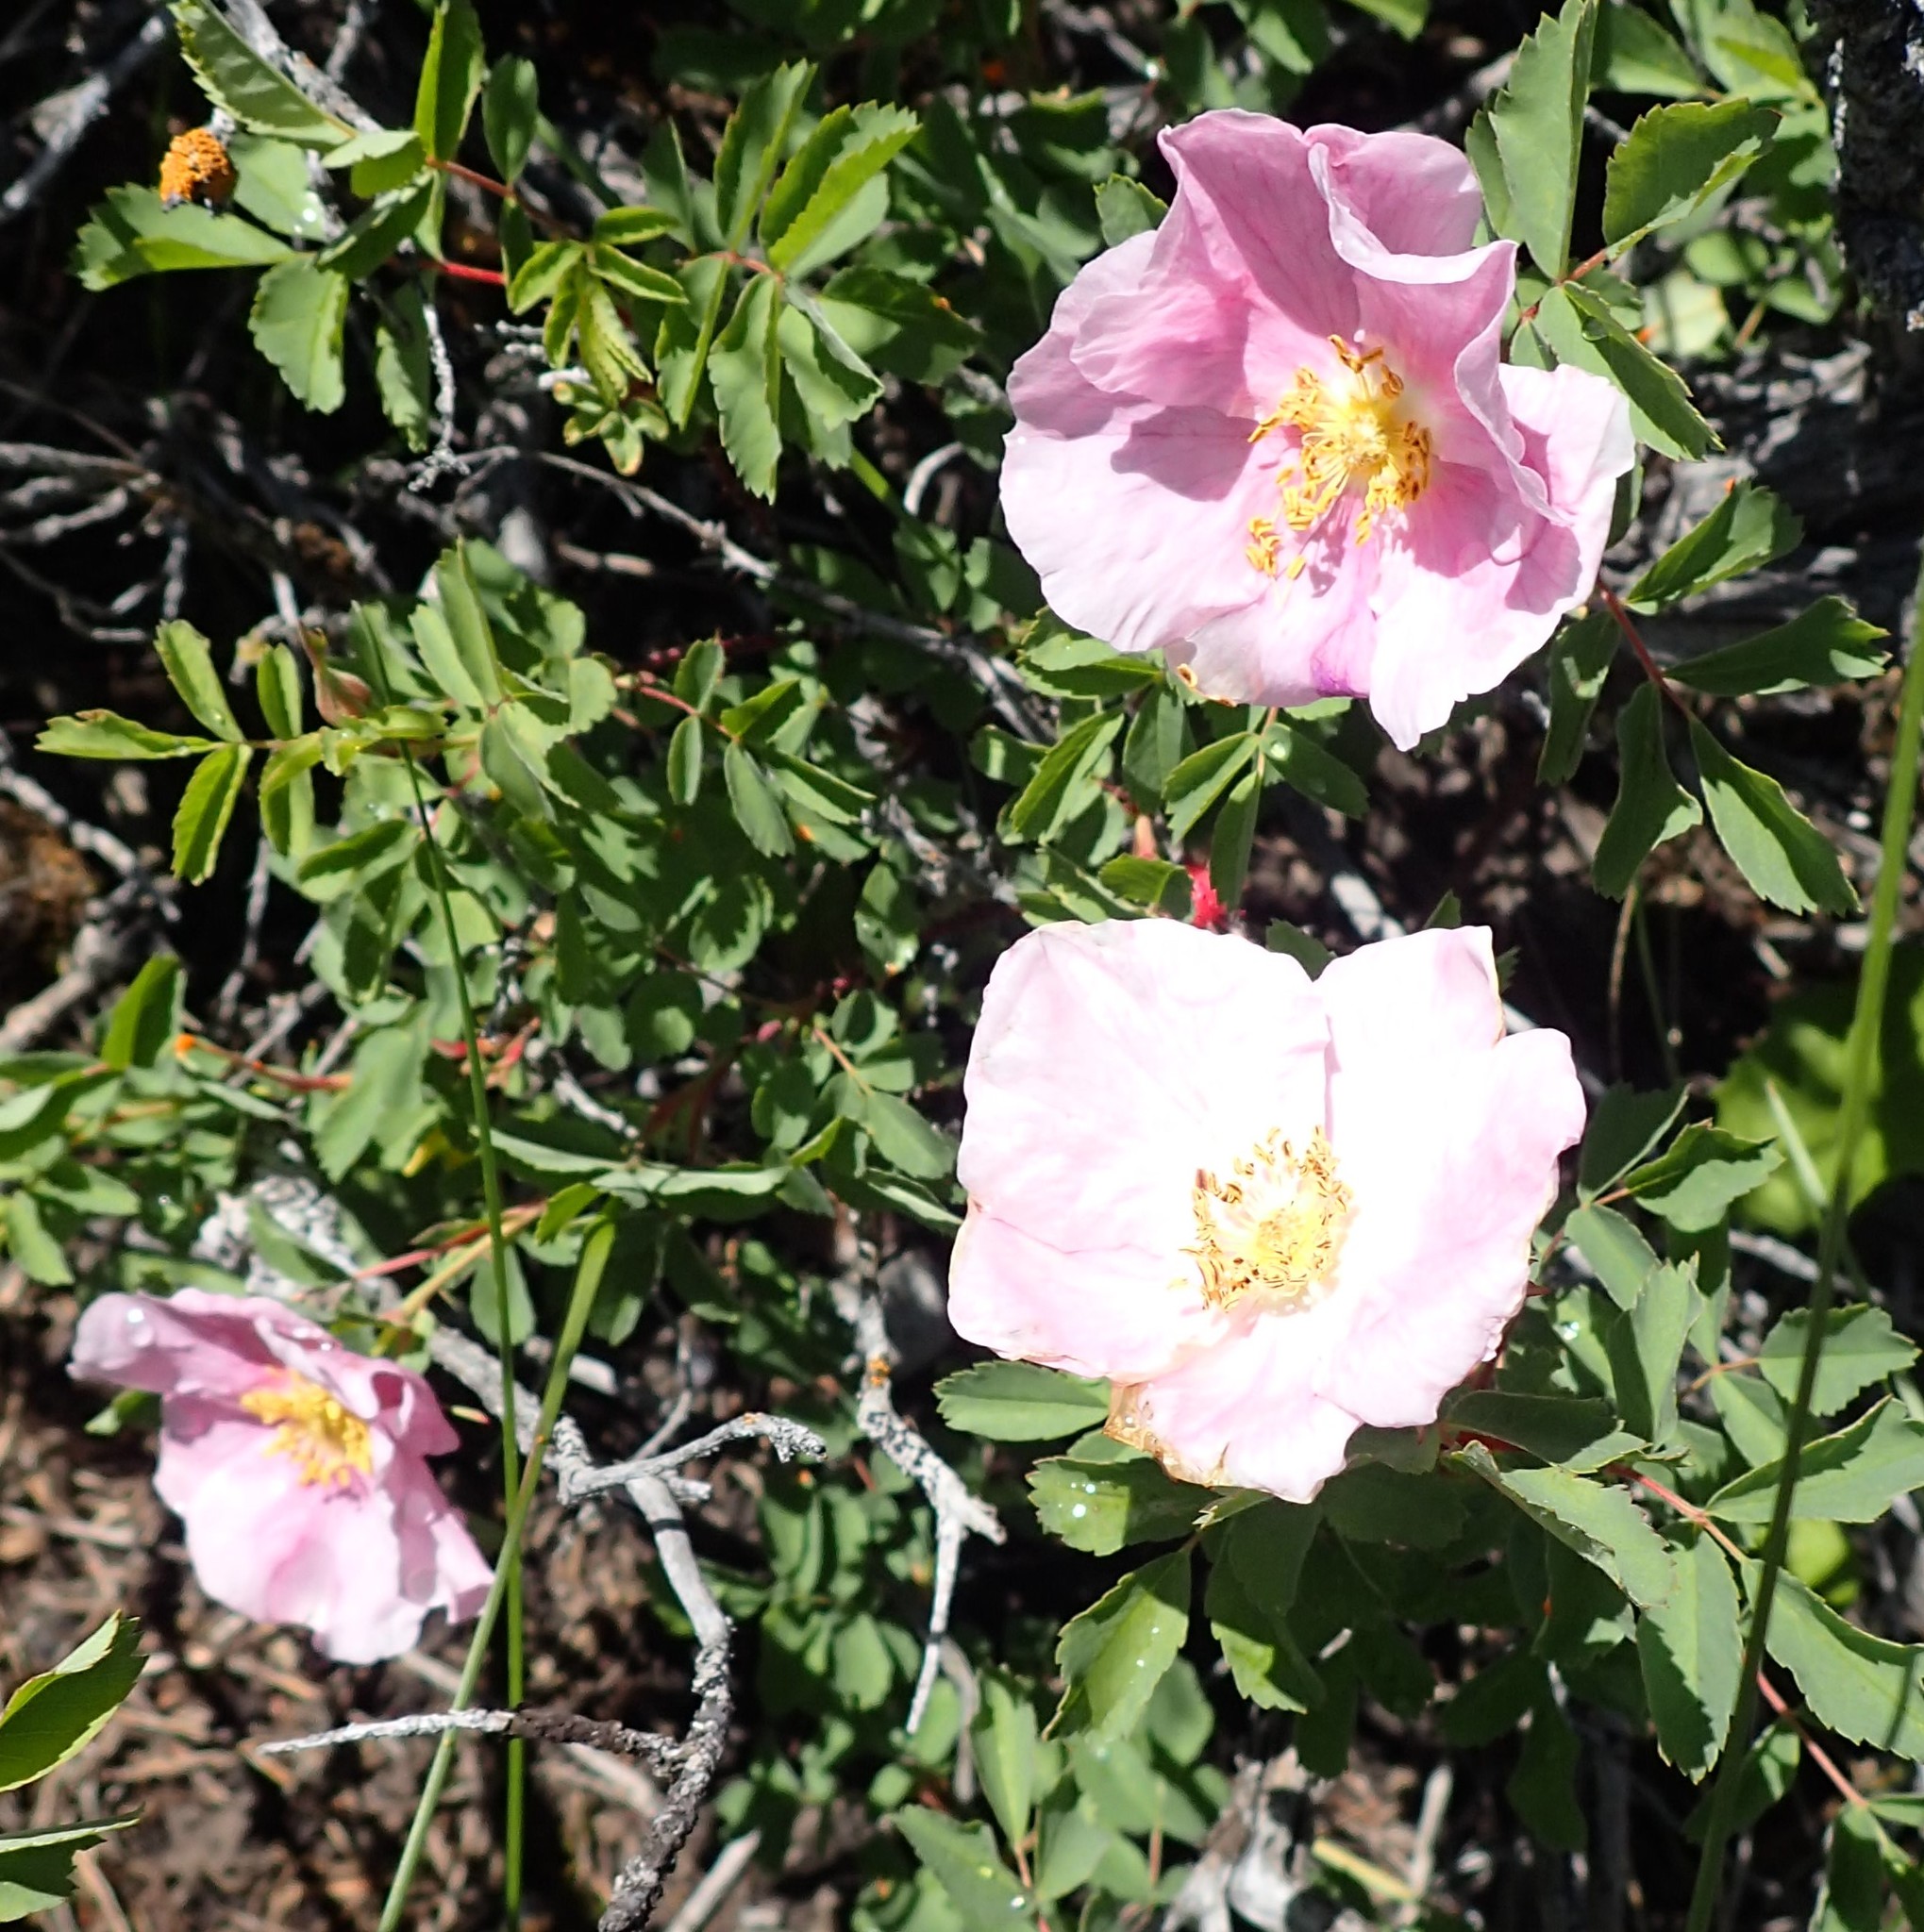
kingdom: Plantae
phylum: Tracheophyta
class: Magnoliopsida
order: Rosales
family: Rosaceae
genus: Rosa
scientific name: Rosa arkansana
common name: Prairie rose
